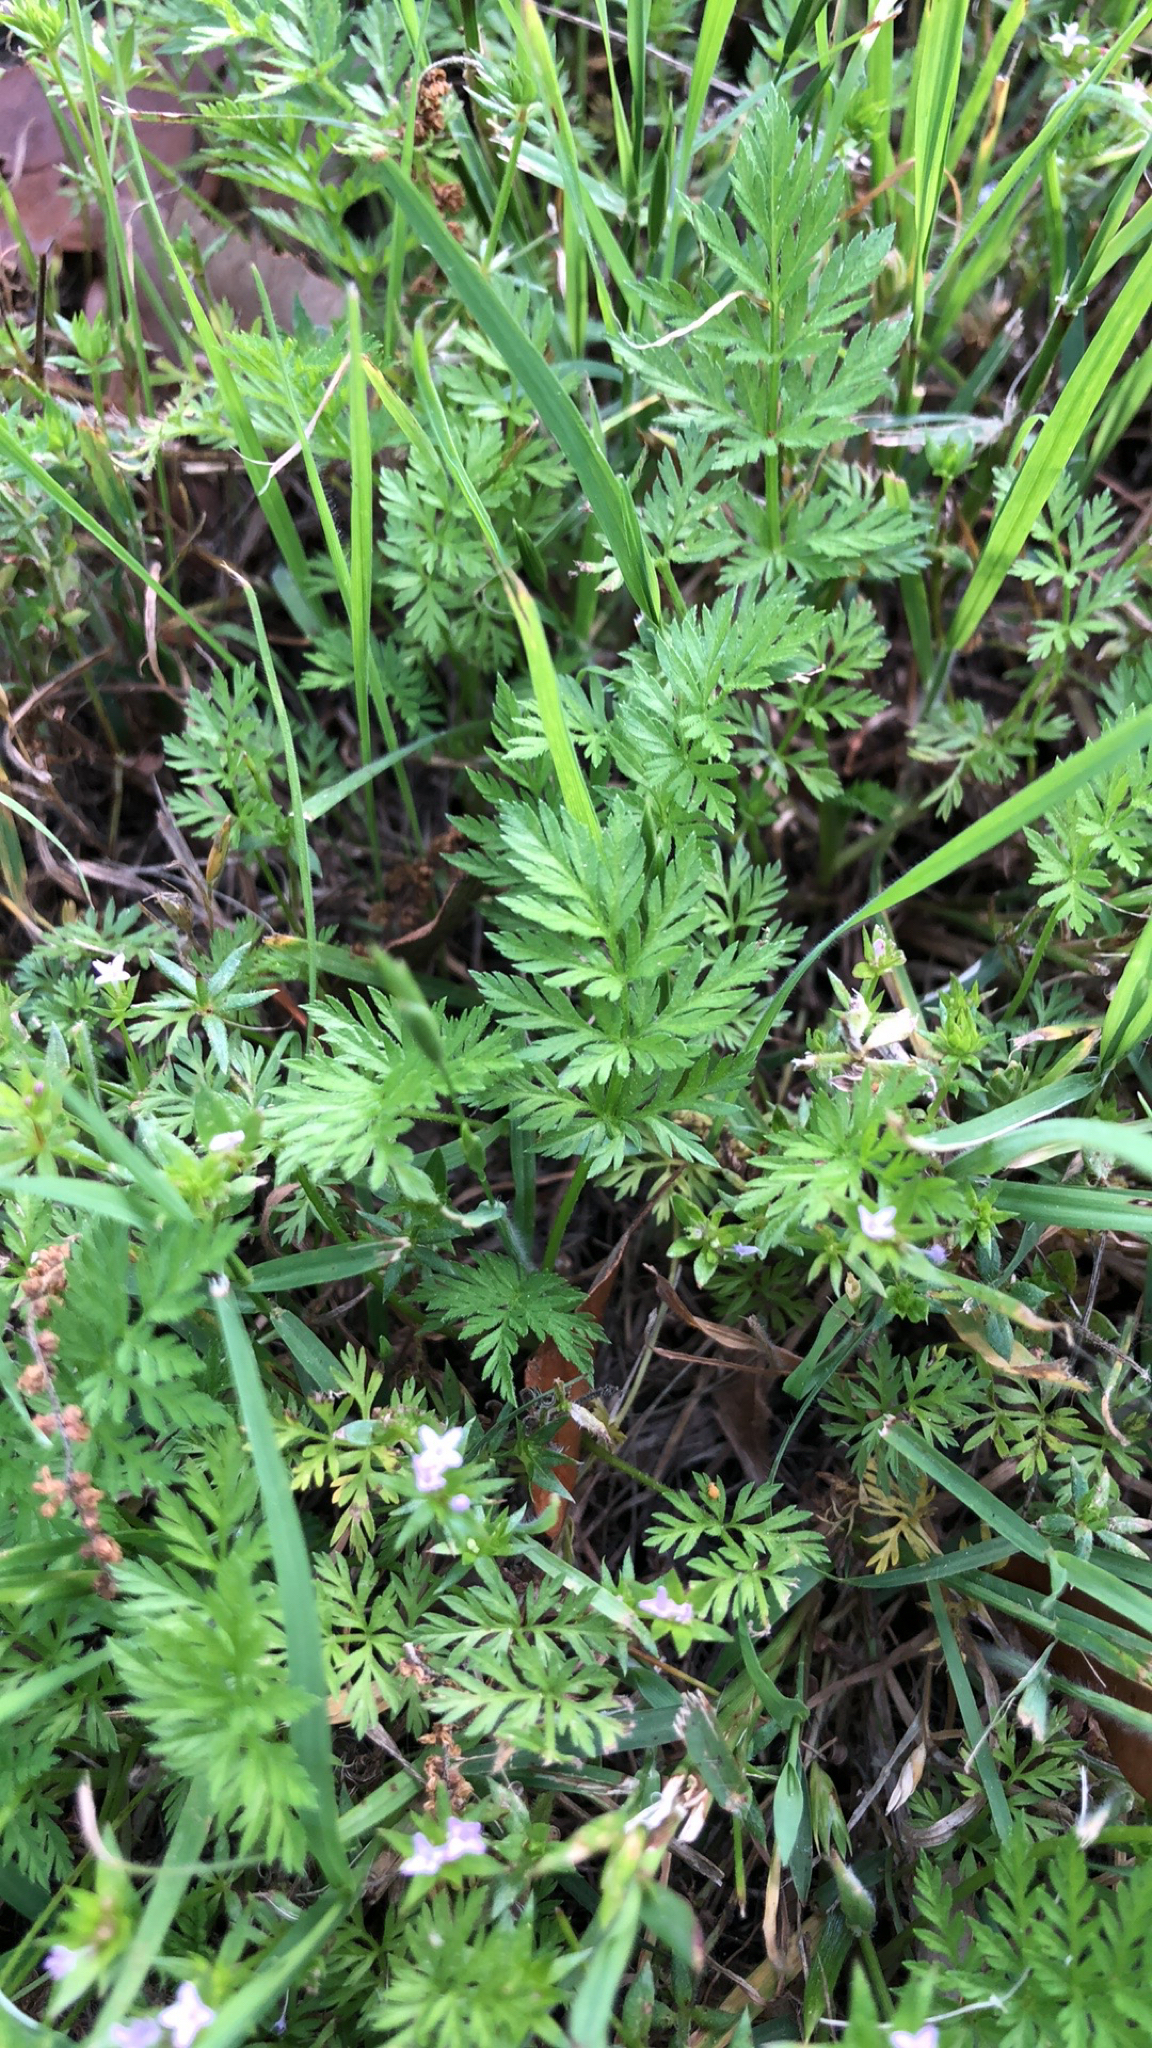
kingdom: Plantae
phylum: Tracheophyta
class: Magnoliopsida
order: Apiales
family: Apiaceae
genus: Torilis
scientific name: Torilis nodosa
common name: Knotted hedge-parsley
